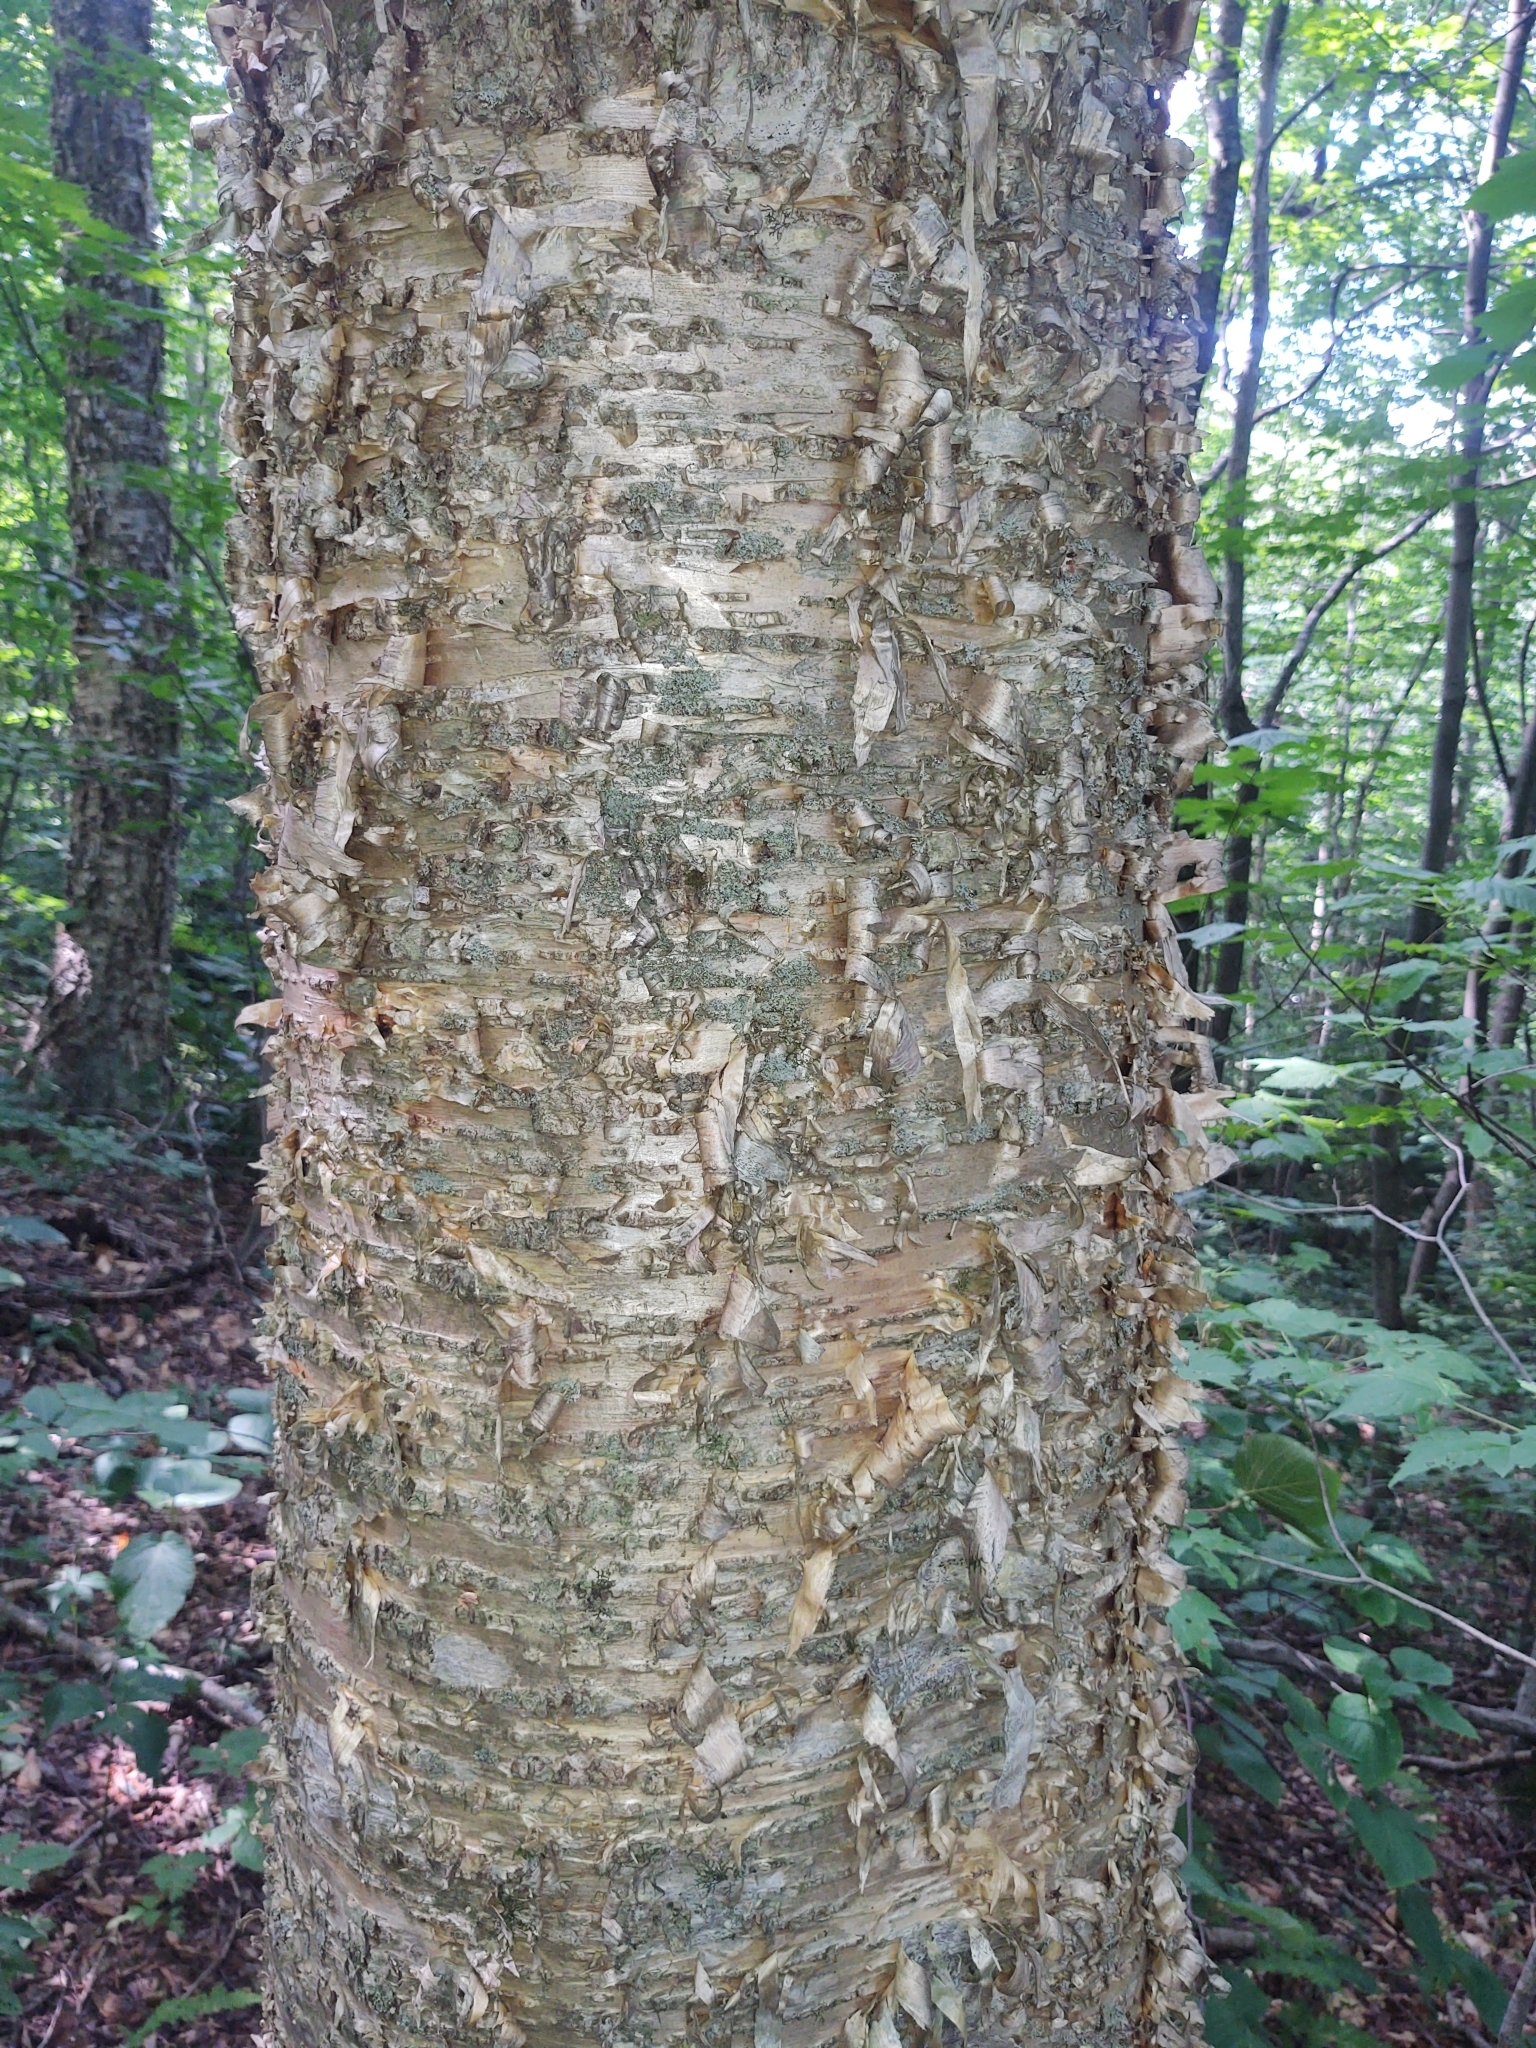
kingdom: Plantae
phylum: Tracheophyta
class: Magnoliopsida
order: Fagales
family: Betulaceae
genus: Betula
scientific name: Betula alleghaniensis
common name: Yellow birch
